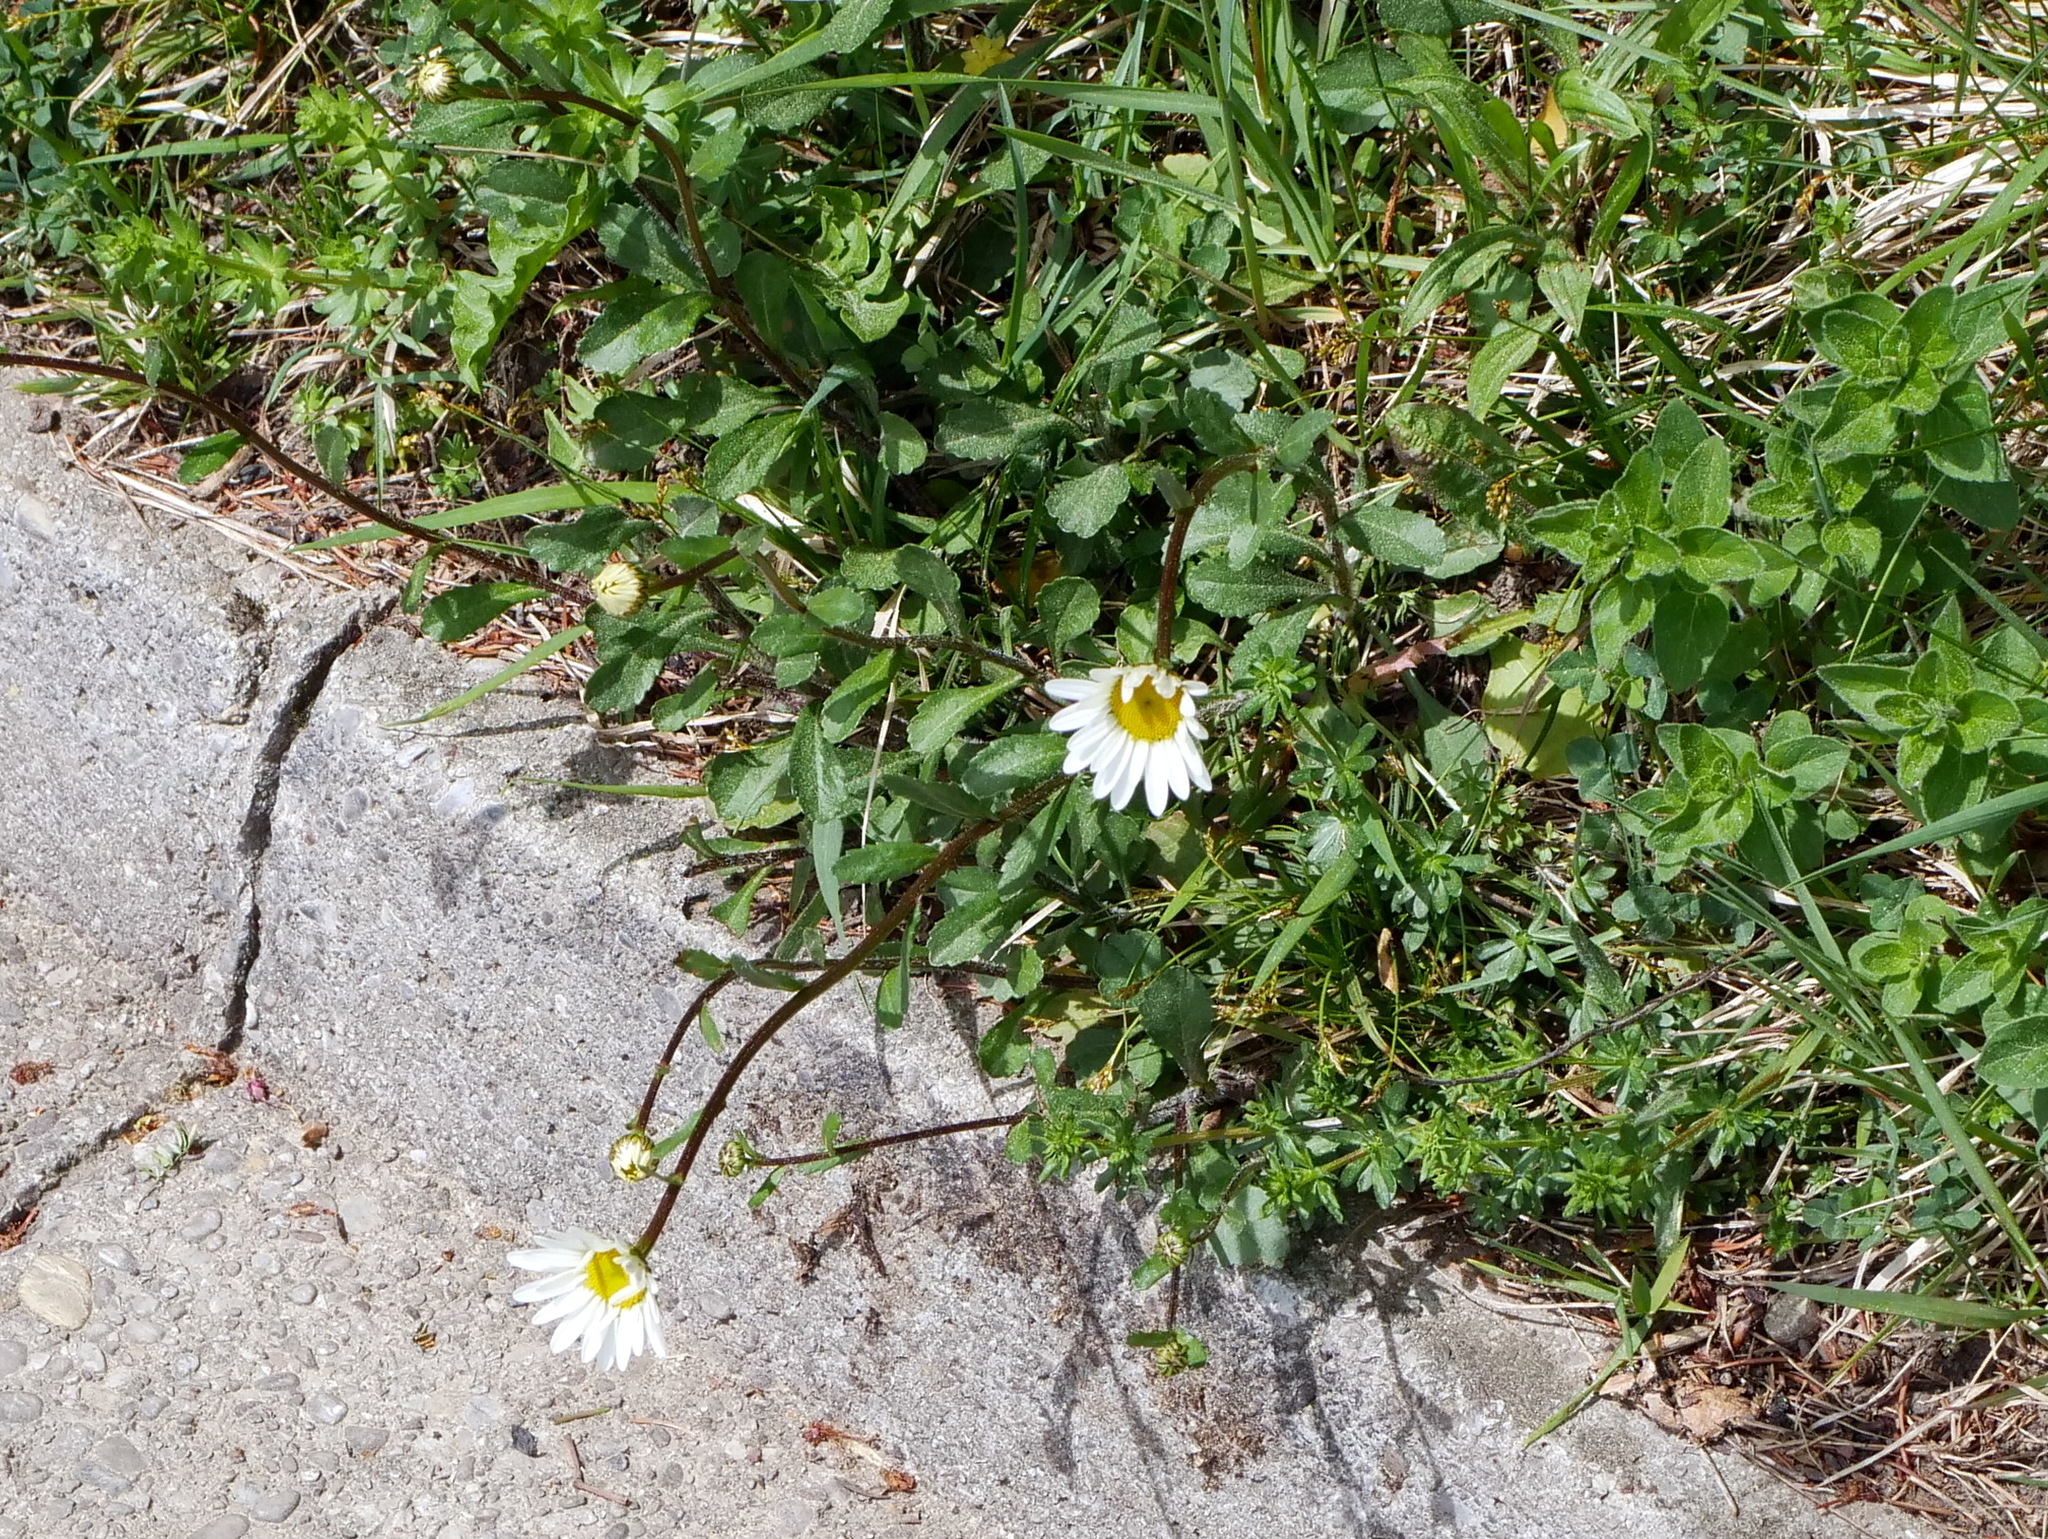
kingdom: Plantae
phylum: Tracheophyta
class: Magnoliopsida
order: Asterales
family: Asteraceae
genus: Leucanthemum
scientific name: Leucanthemum ircutianum
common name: Daisy
